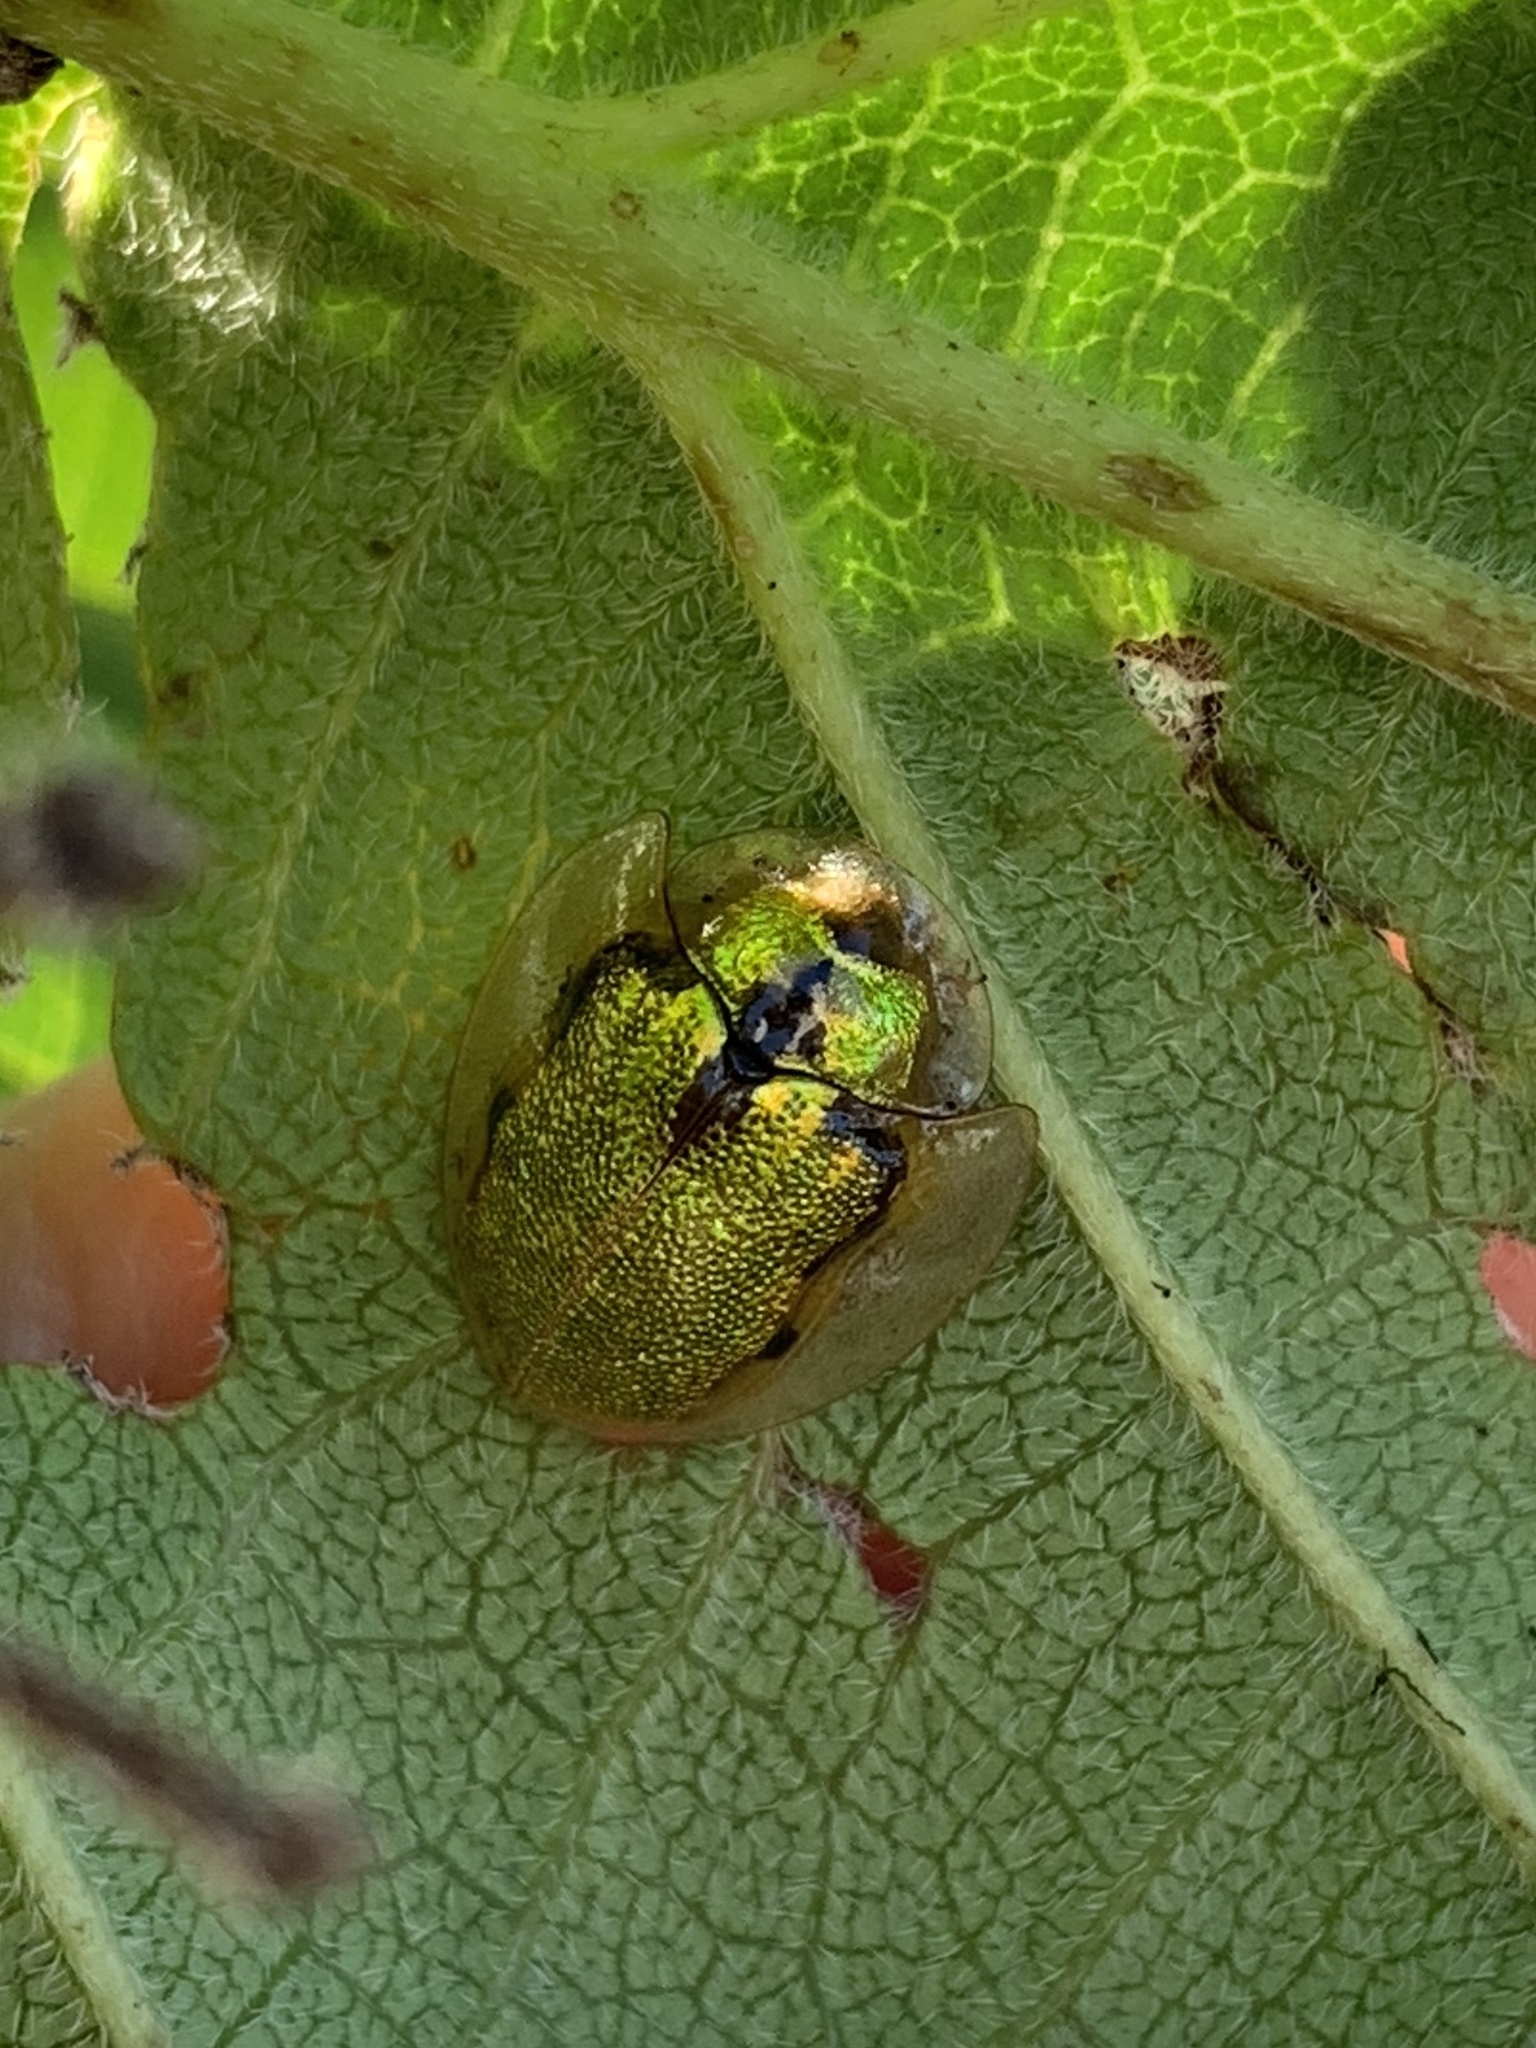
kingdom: Animalia
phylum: Arthropoda
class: Insecta
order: Coleoptera
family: Chrysomelidae
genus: Eurypepla
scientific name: Eurypepla calochroma
